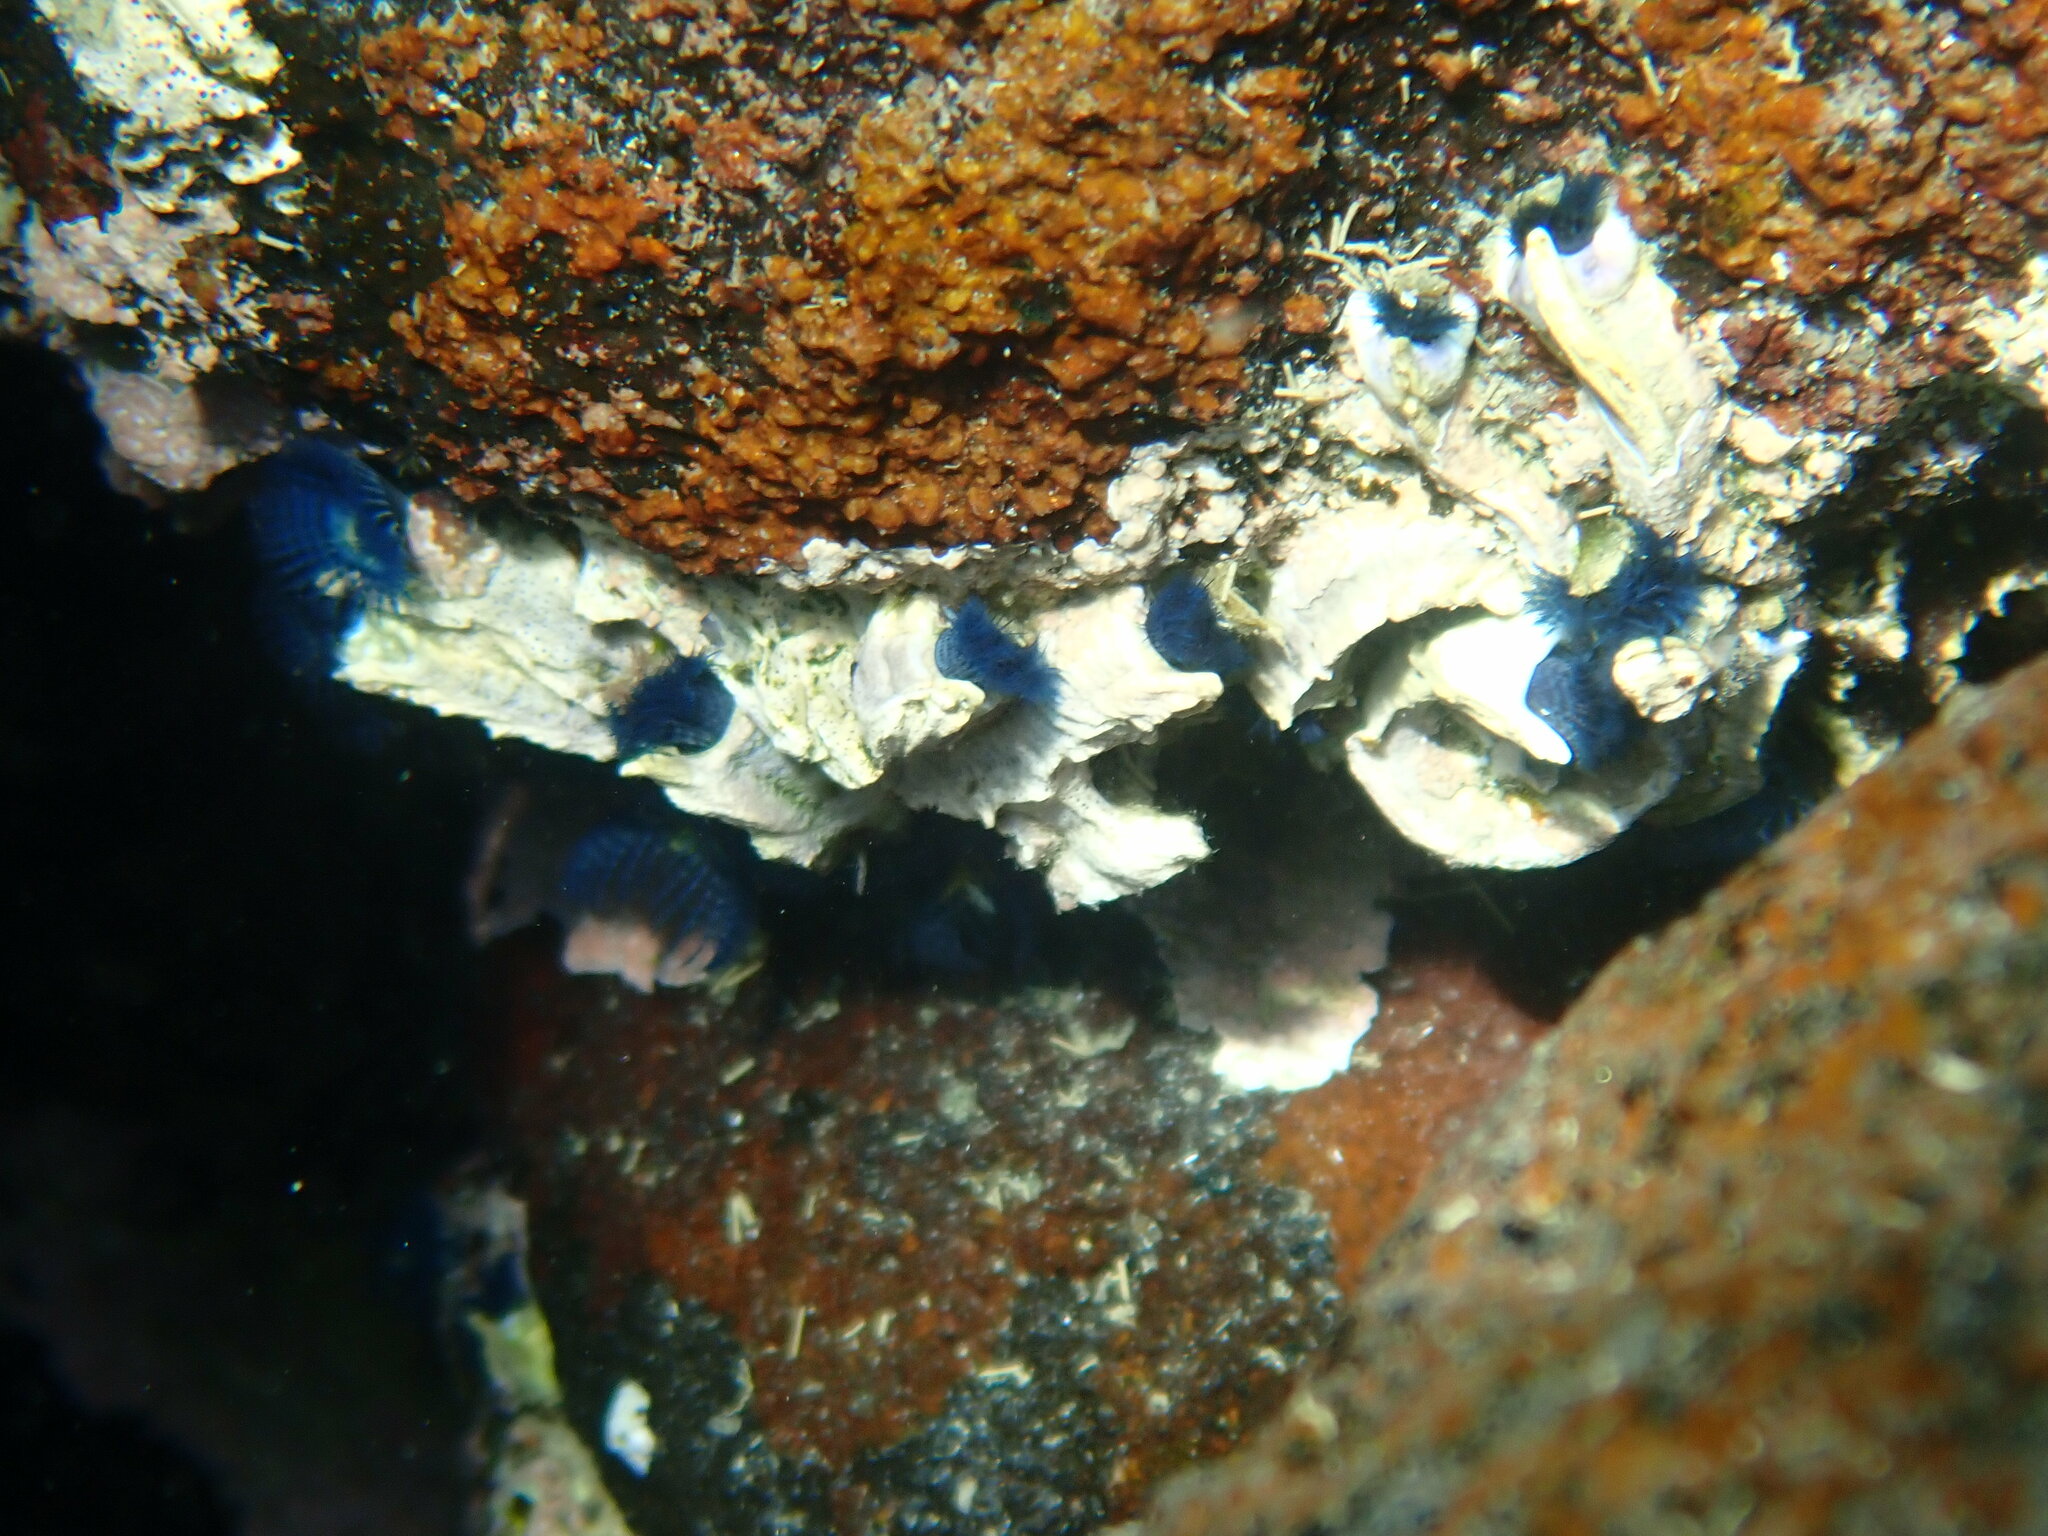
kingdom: Animalia
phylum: Annelida
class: Polychaeta
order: Sabellida
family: Serpulidae
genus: Spirobranchus
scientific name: Spirobranchus cariniferus
